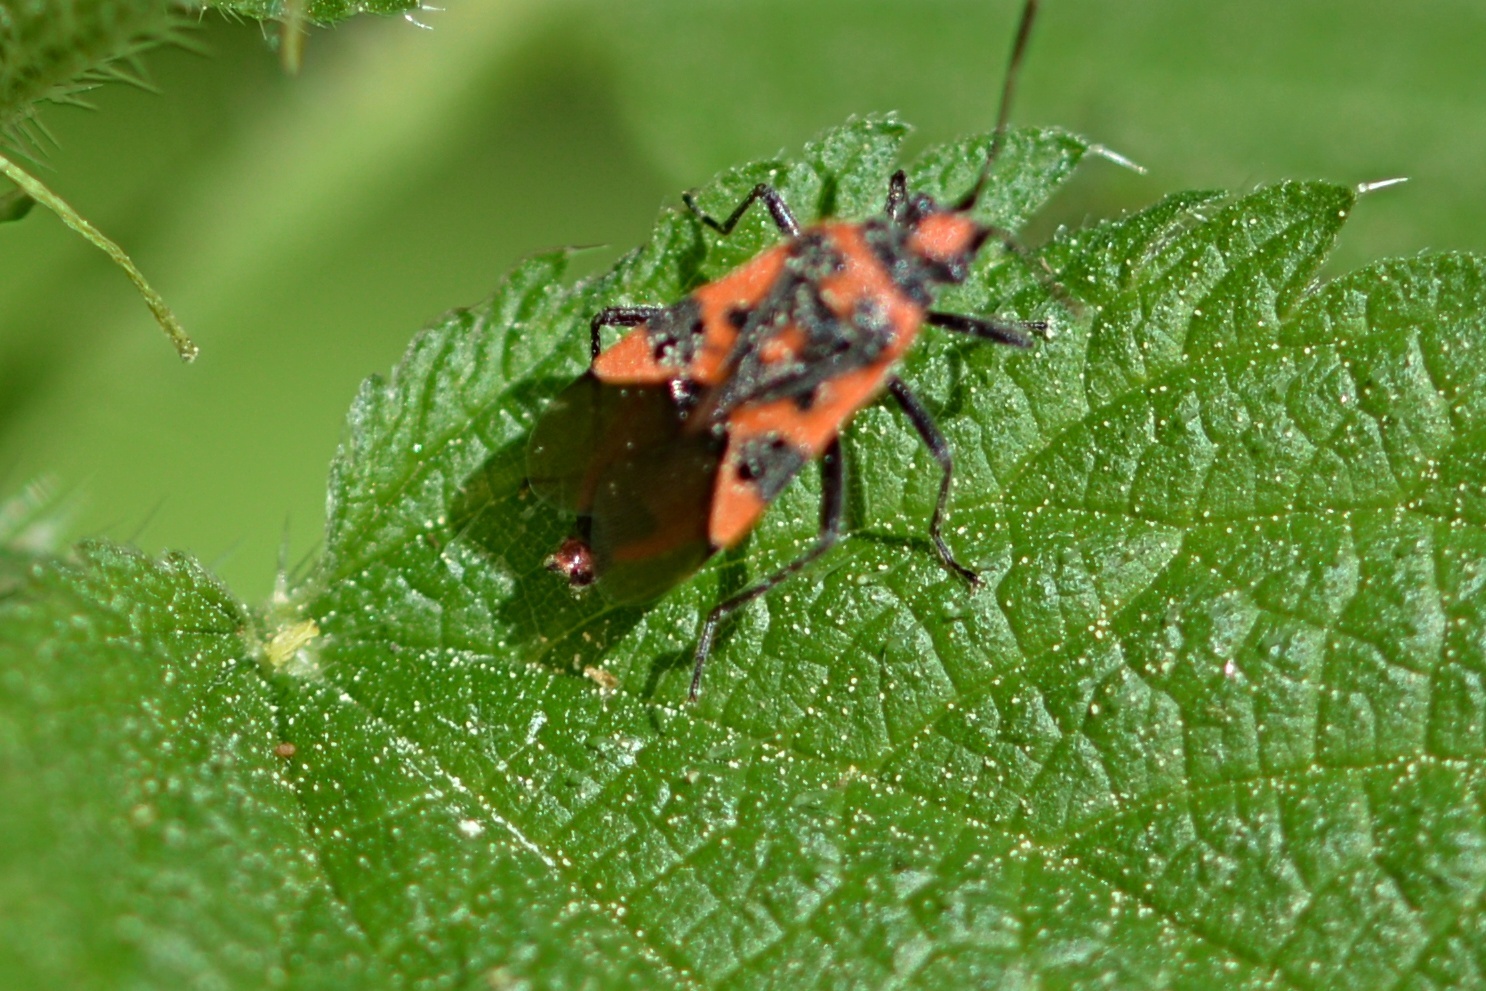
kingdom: Animalia
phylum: Arthropoda
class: Insecta
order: Hemiptera
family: Rhopalidae
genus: Corizus
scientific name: Corizus hyoscyami
